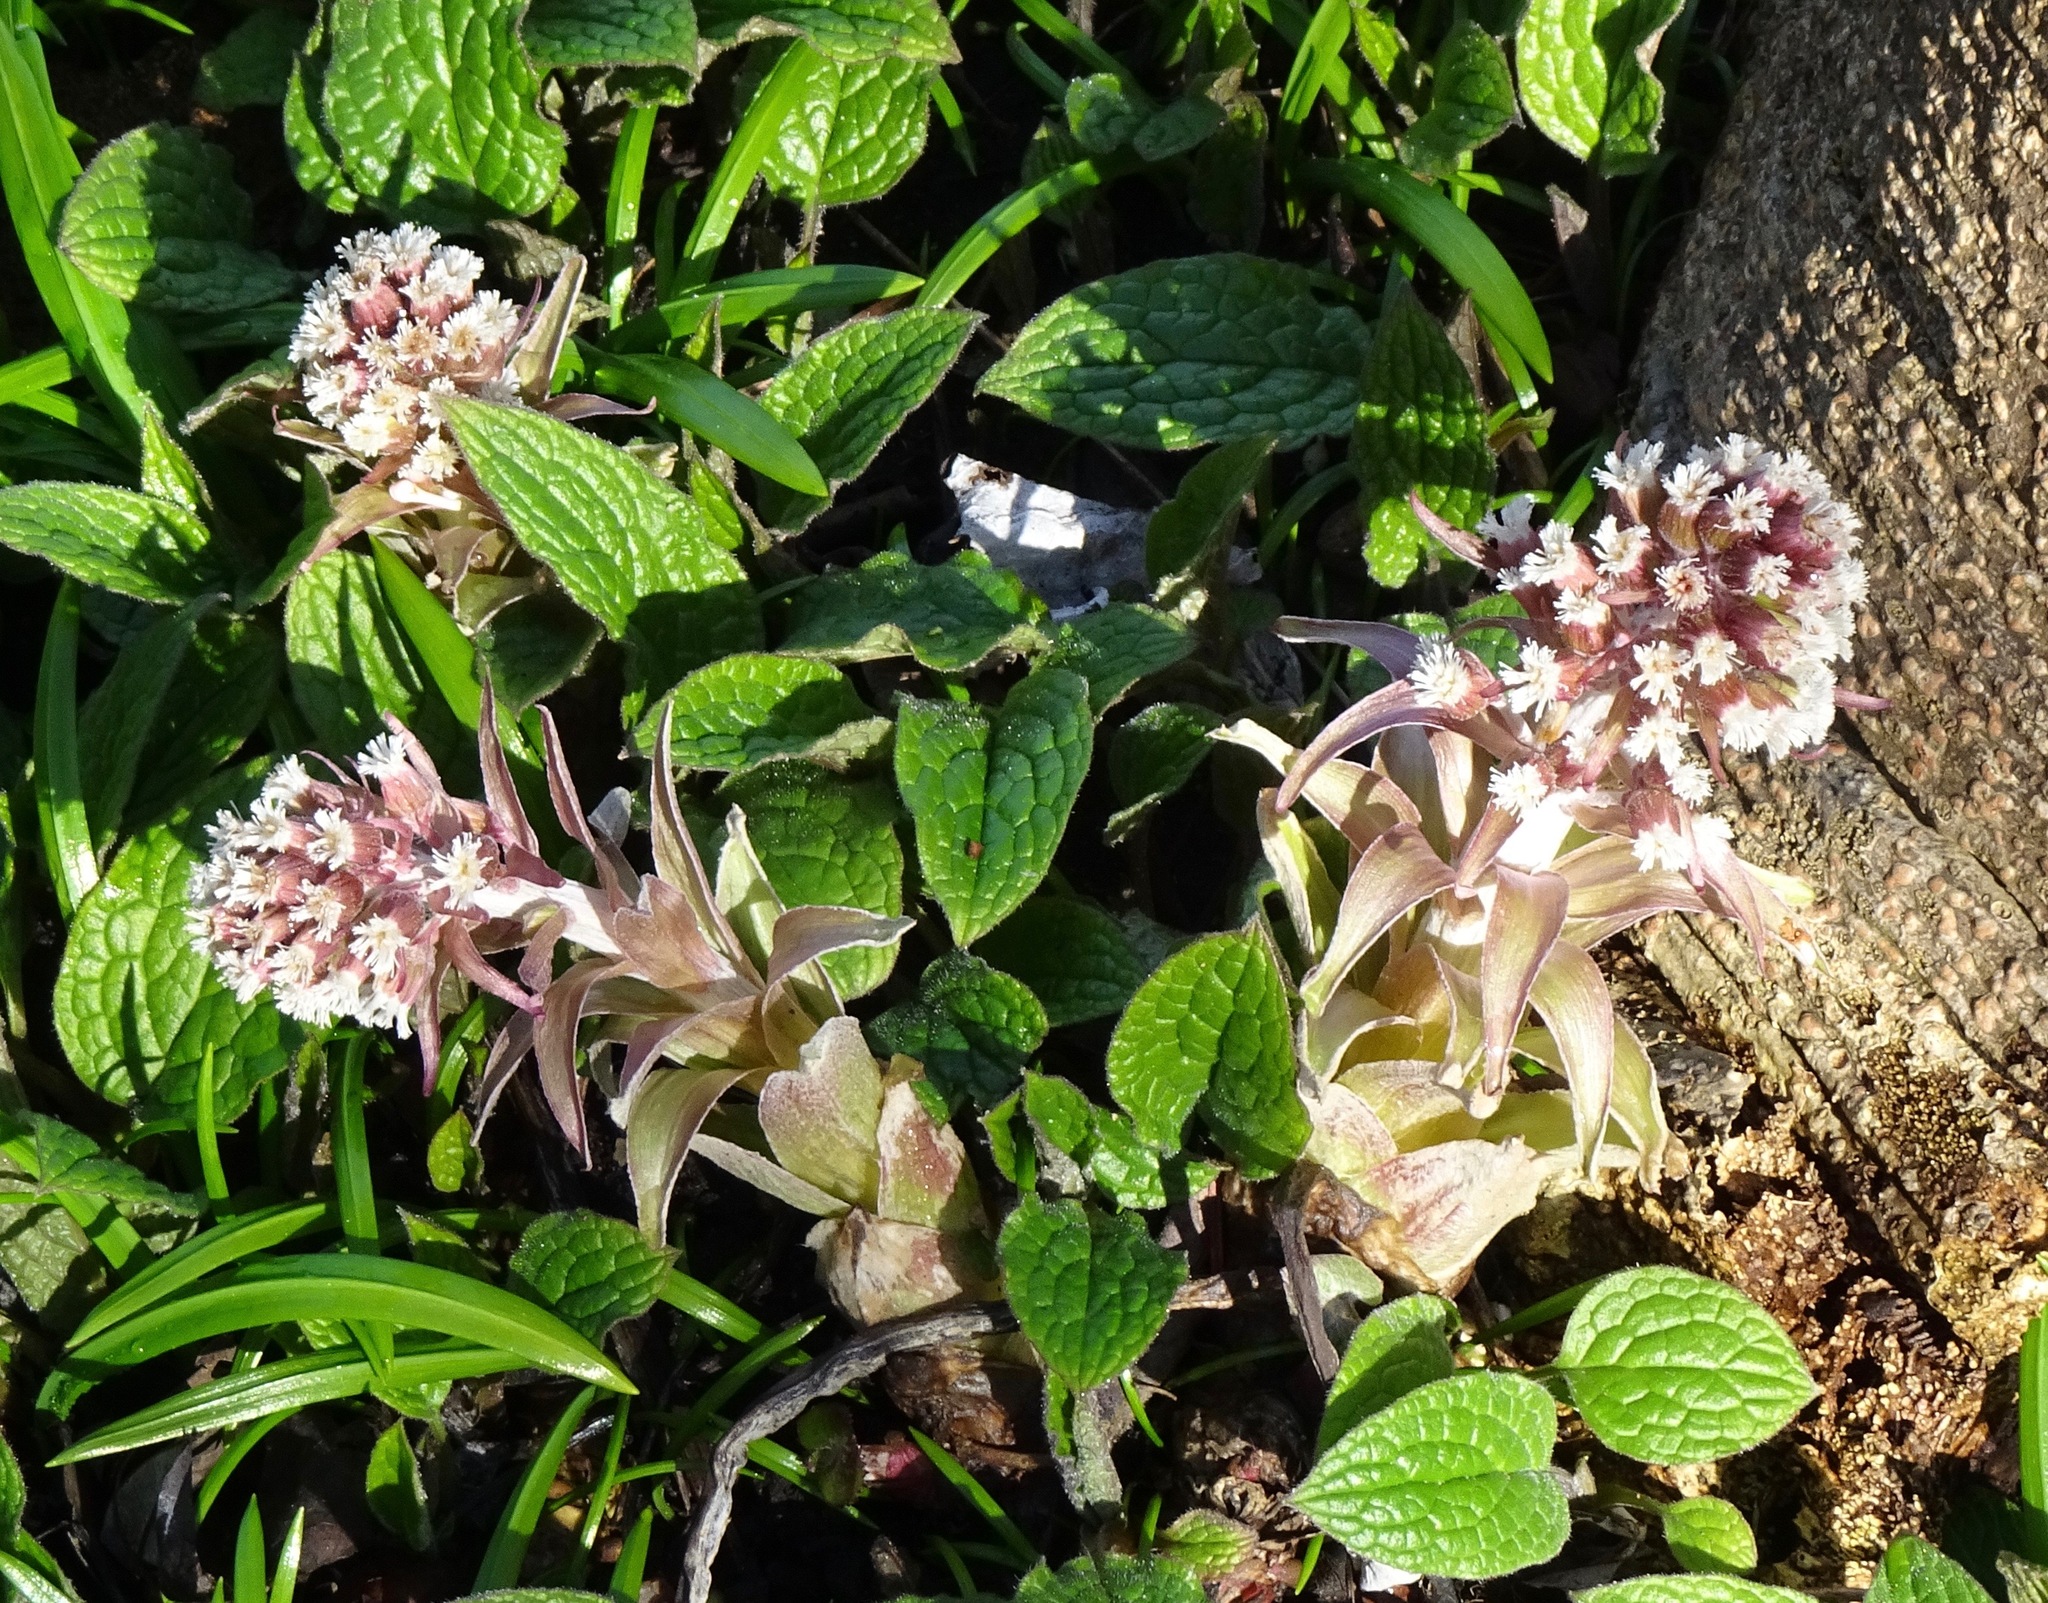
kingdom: Plantae
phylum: Tracheophyta
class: Magnoliopsida
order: Asterales
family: Asteraceae
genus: Petasites
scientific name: Petasites hybridus
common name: Butterbur
